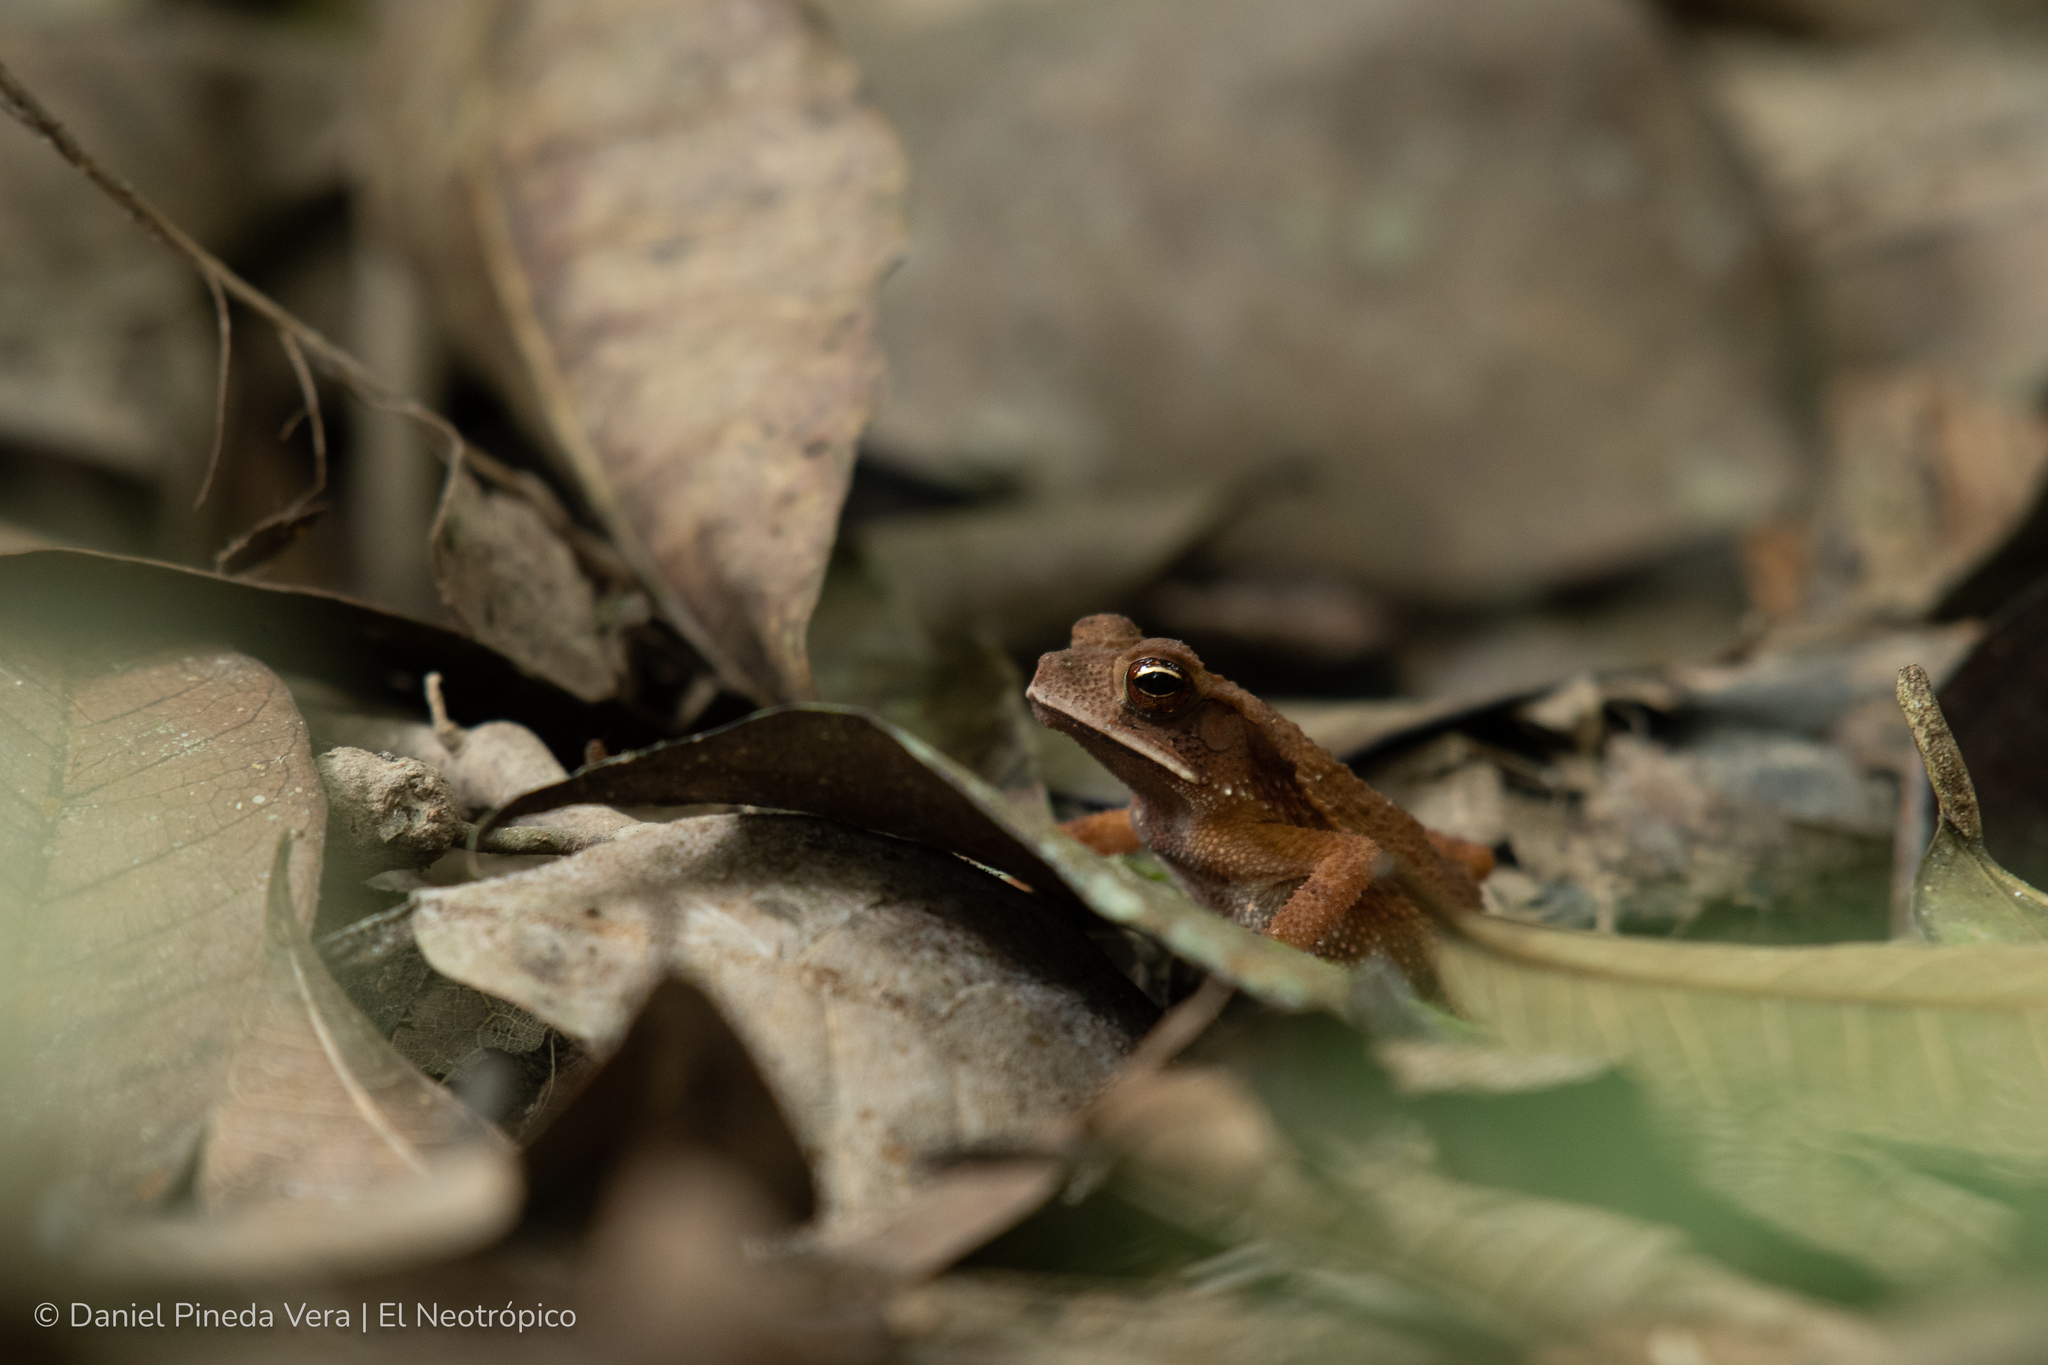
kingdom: Animalia
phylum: Chordata
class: Amphibia
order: Anura
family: Bufonidae
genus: Incilius
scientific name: Incilius campbelli
